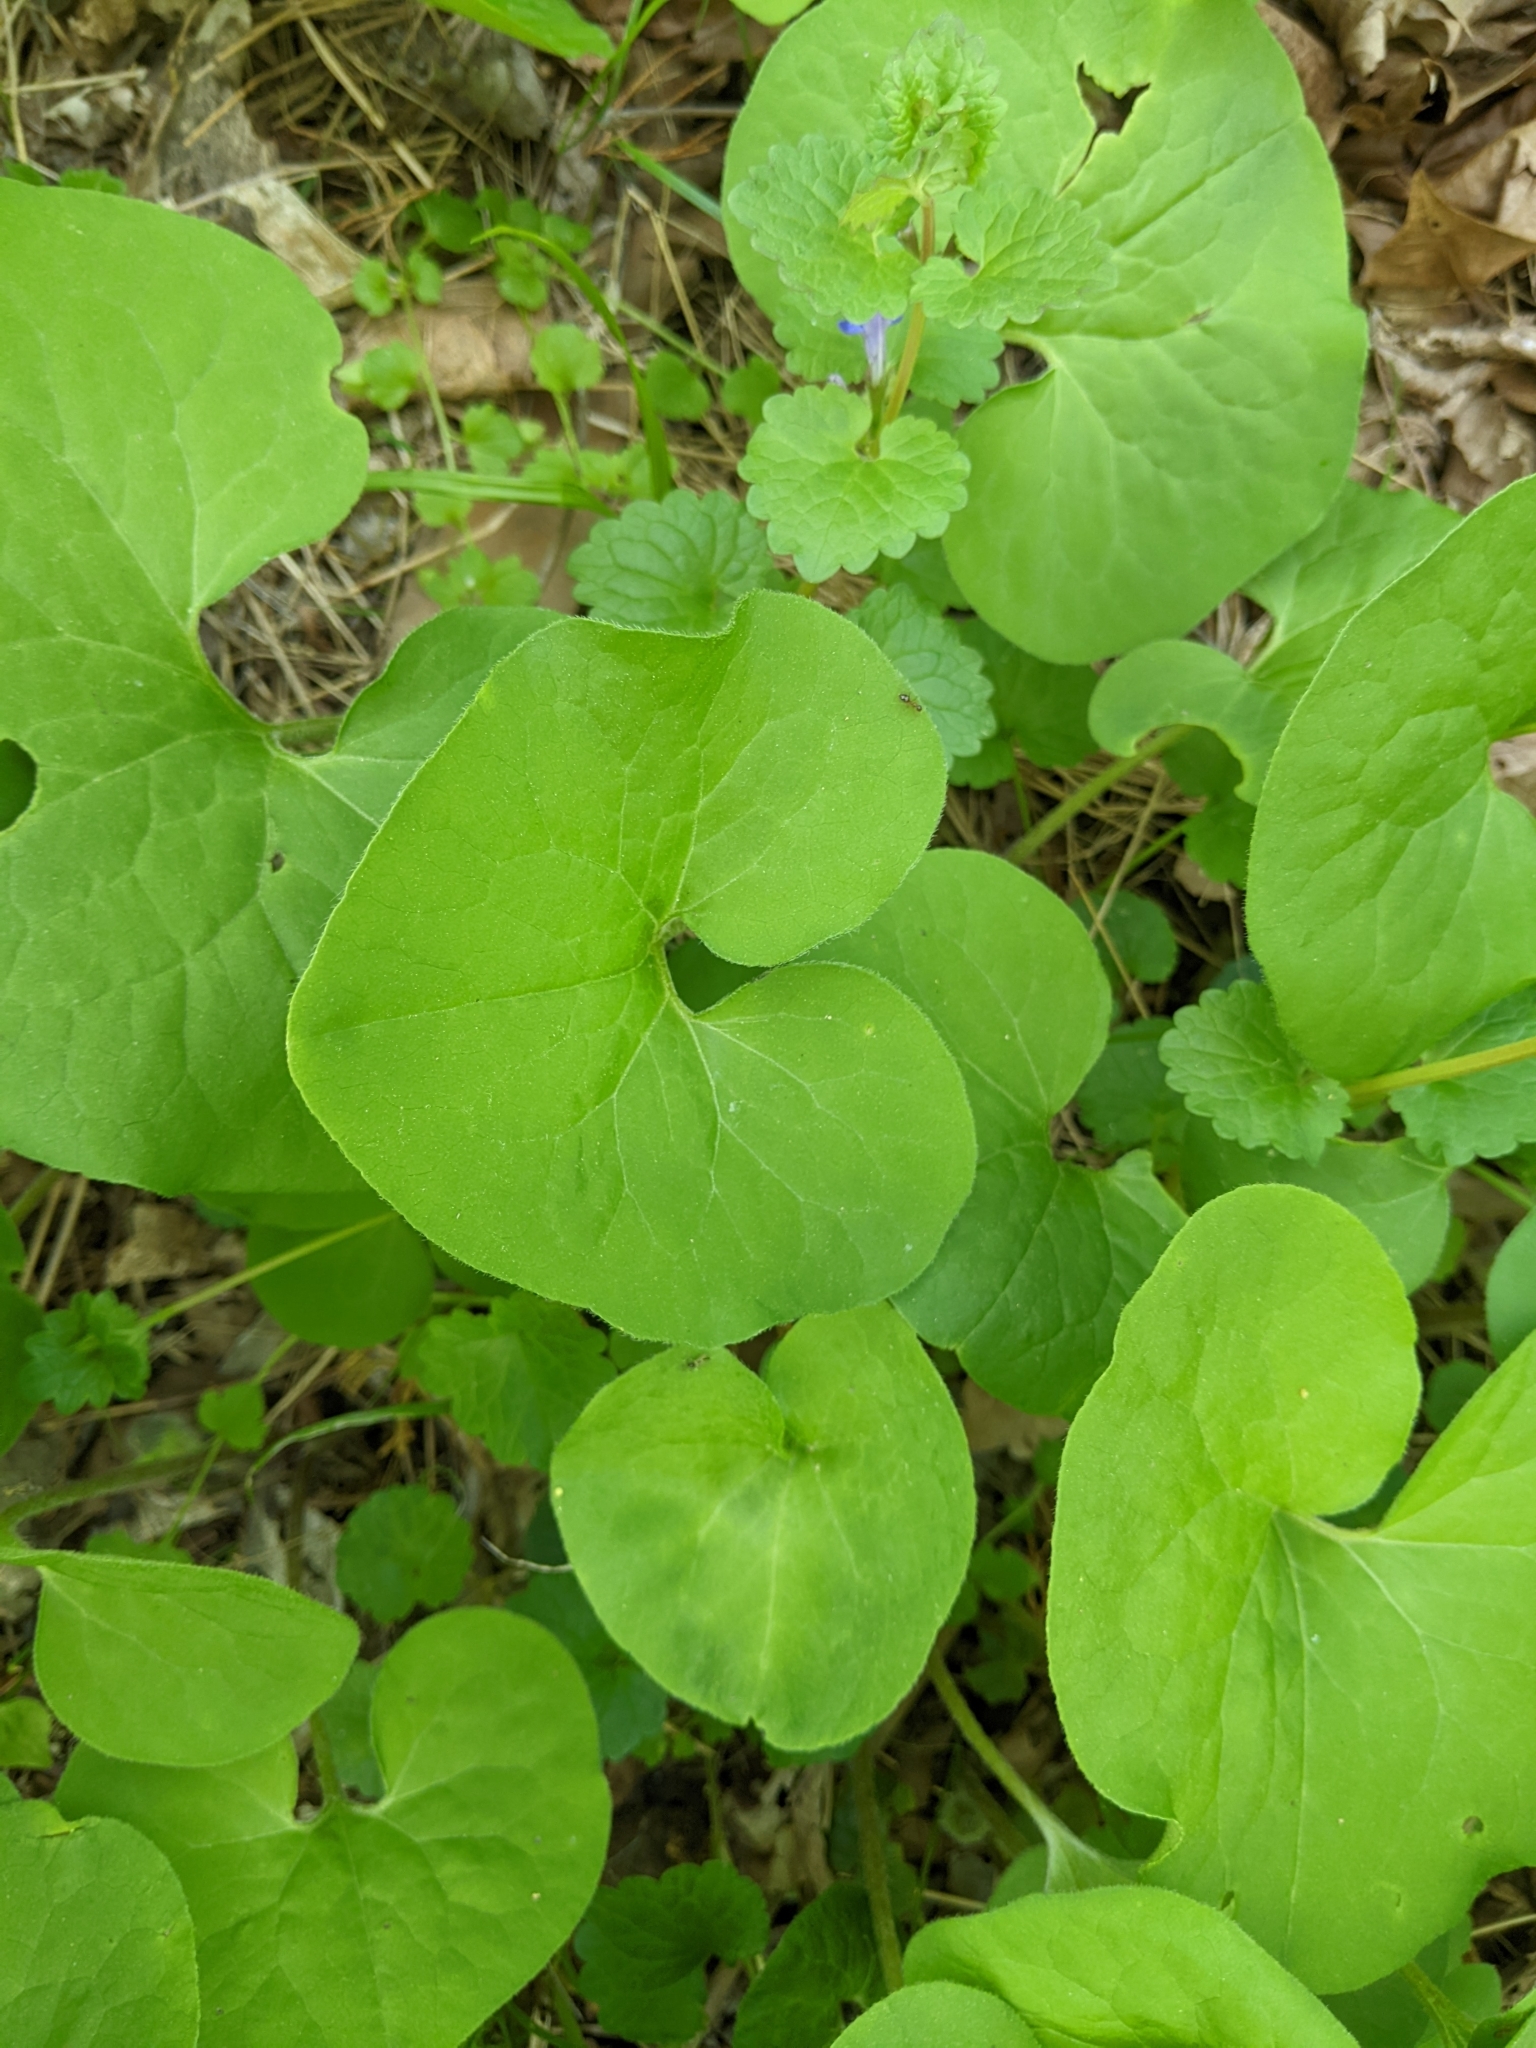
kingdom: Plantae
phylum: Tracheophyta
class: Magnoliopsida
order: Piperales
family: Aristolochiaceae
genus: Asarum
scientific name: Asarum canadense
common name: Wild ginger
